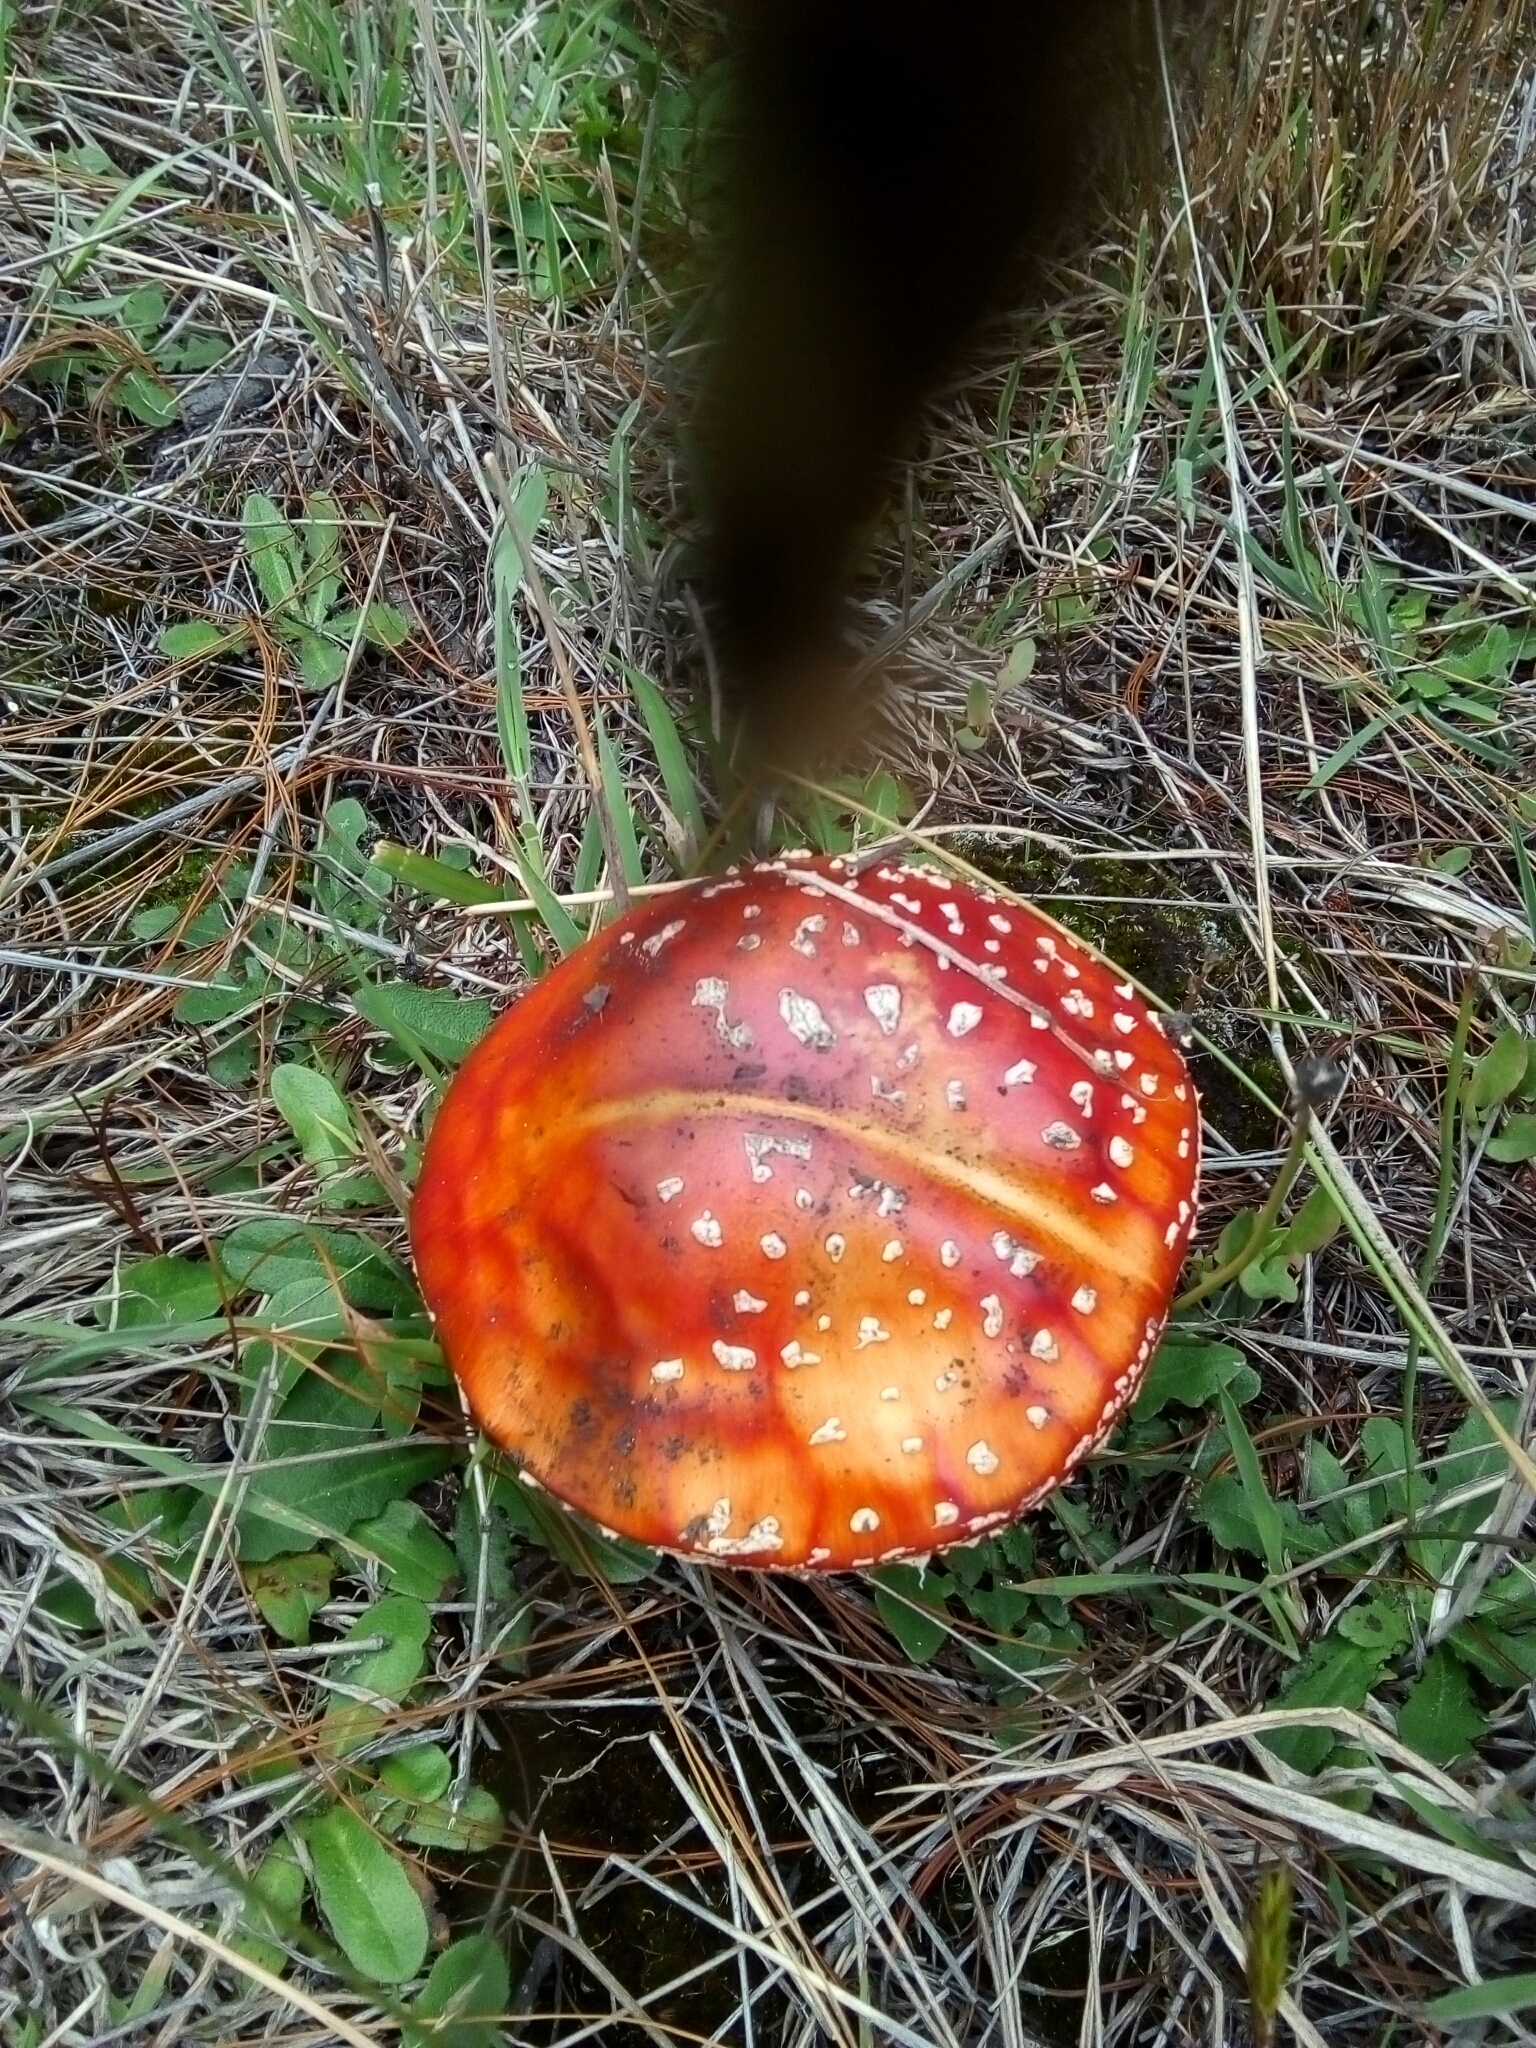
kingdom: Fungi
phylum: Basidiomycota
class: Agaricomycetes
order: Agaricales
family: Amanitaceae
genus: Amanita
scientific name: Amanita muscaria
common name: Fly agaric
